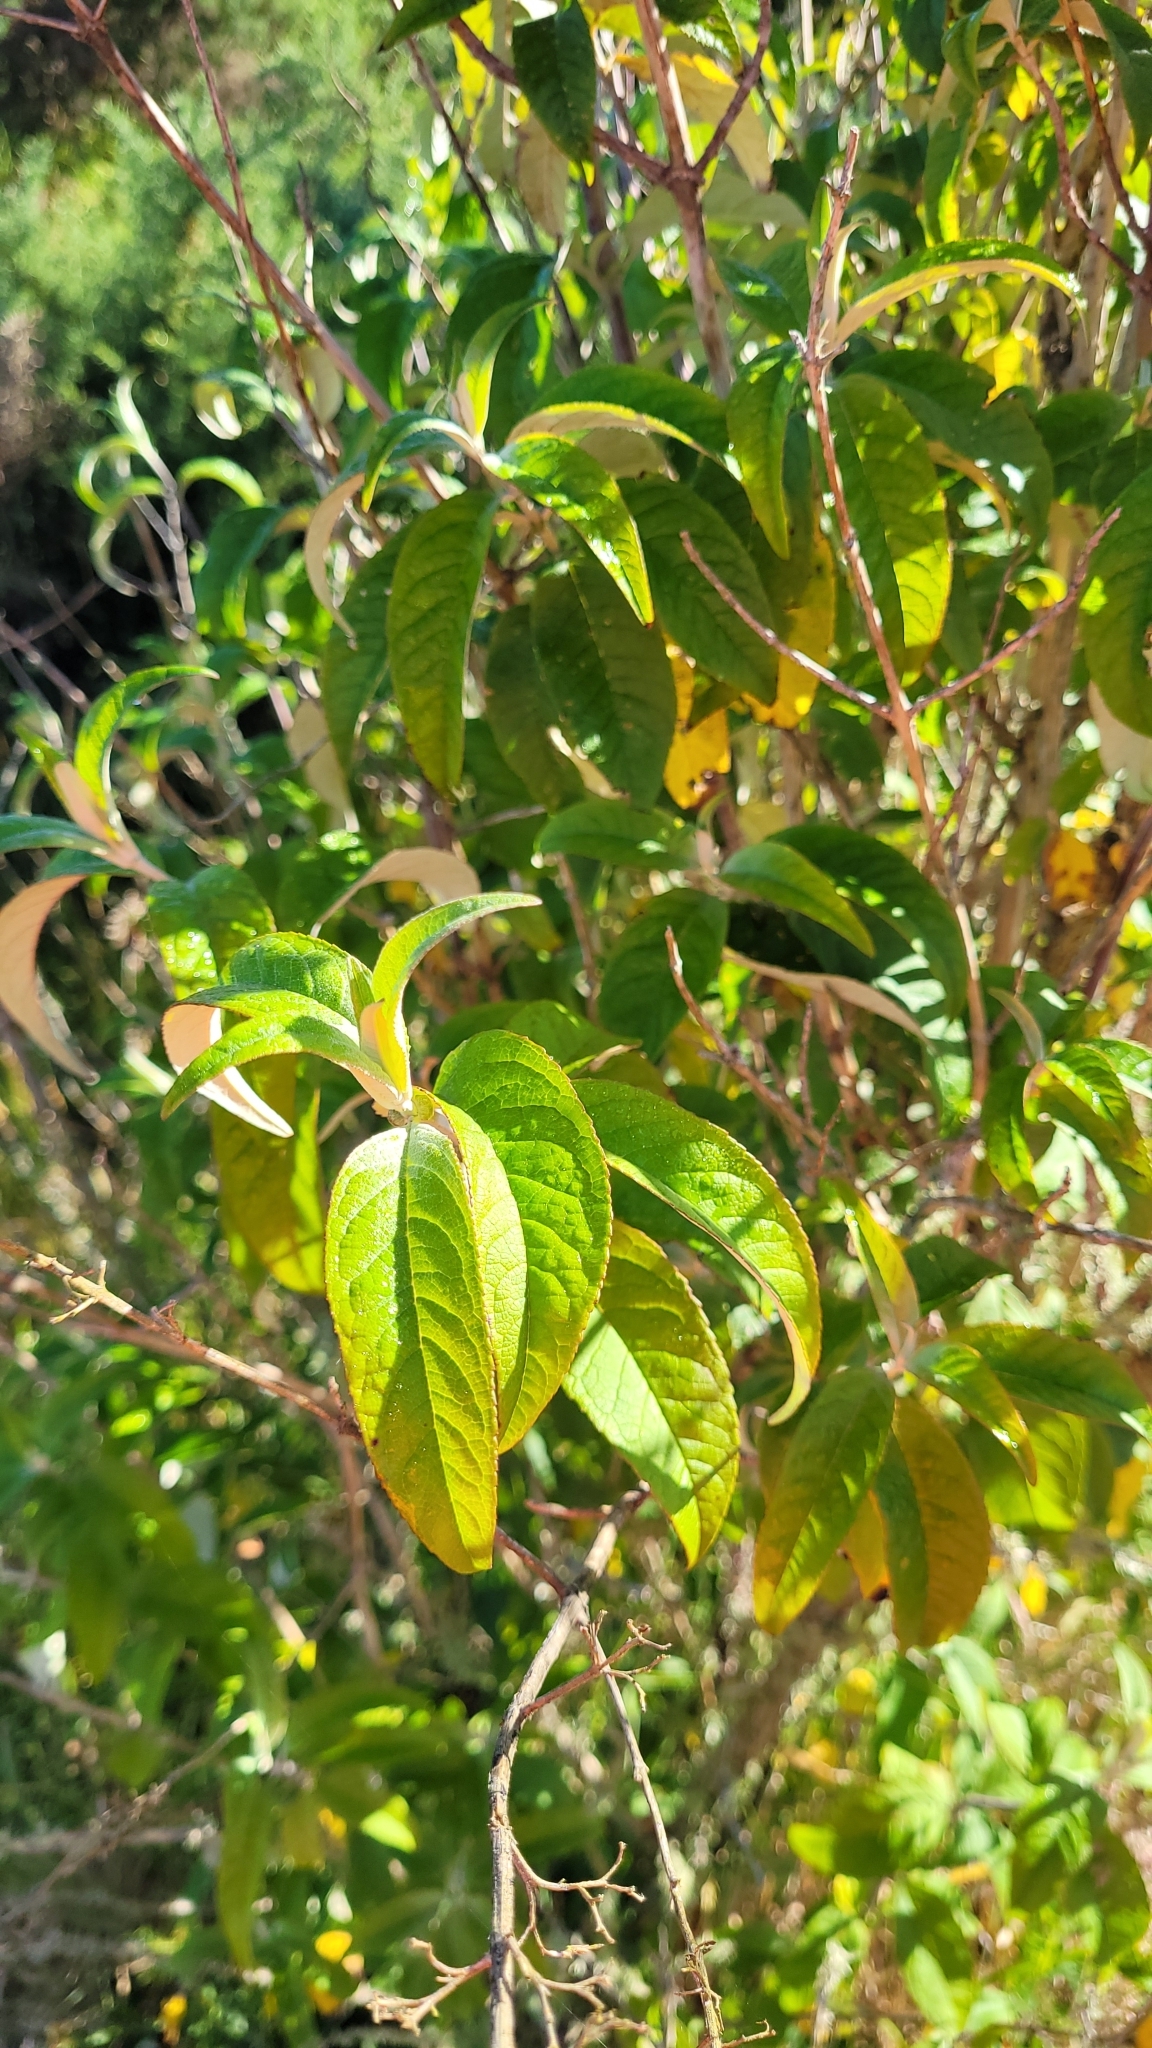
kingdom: Plantae
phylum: Tracheophyta
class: Magnoliopsida
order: Lamiales
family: Scrophulariaceae
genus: Buddleja
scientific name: Buddleja davidii
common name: Butterfly-bush
